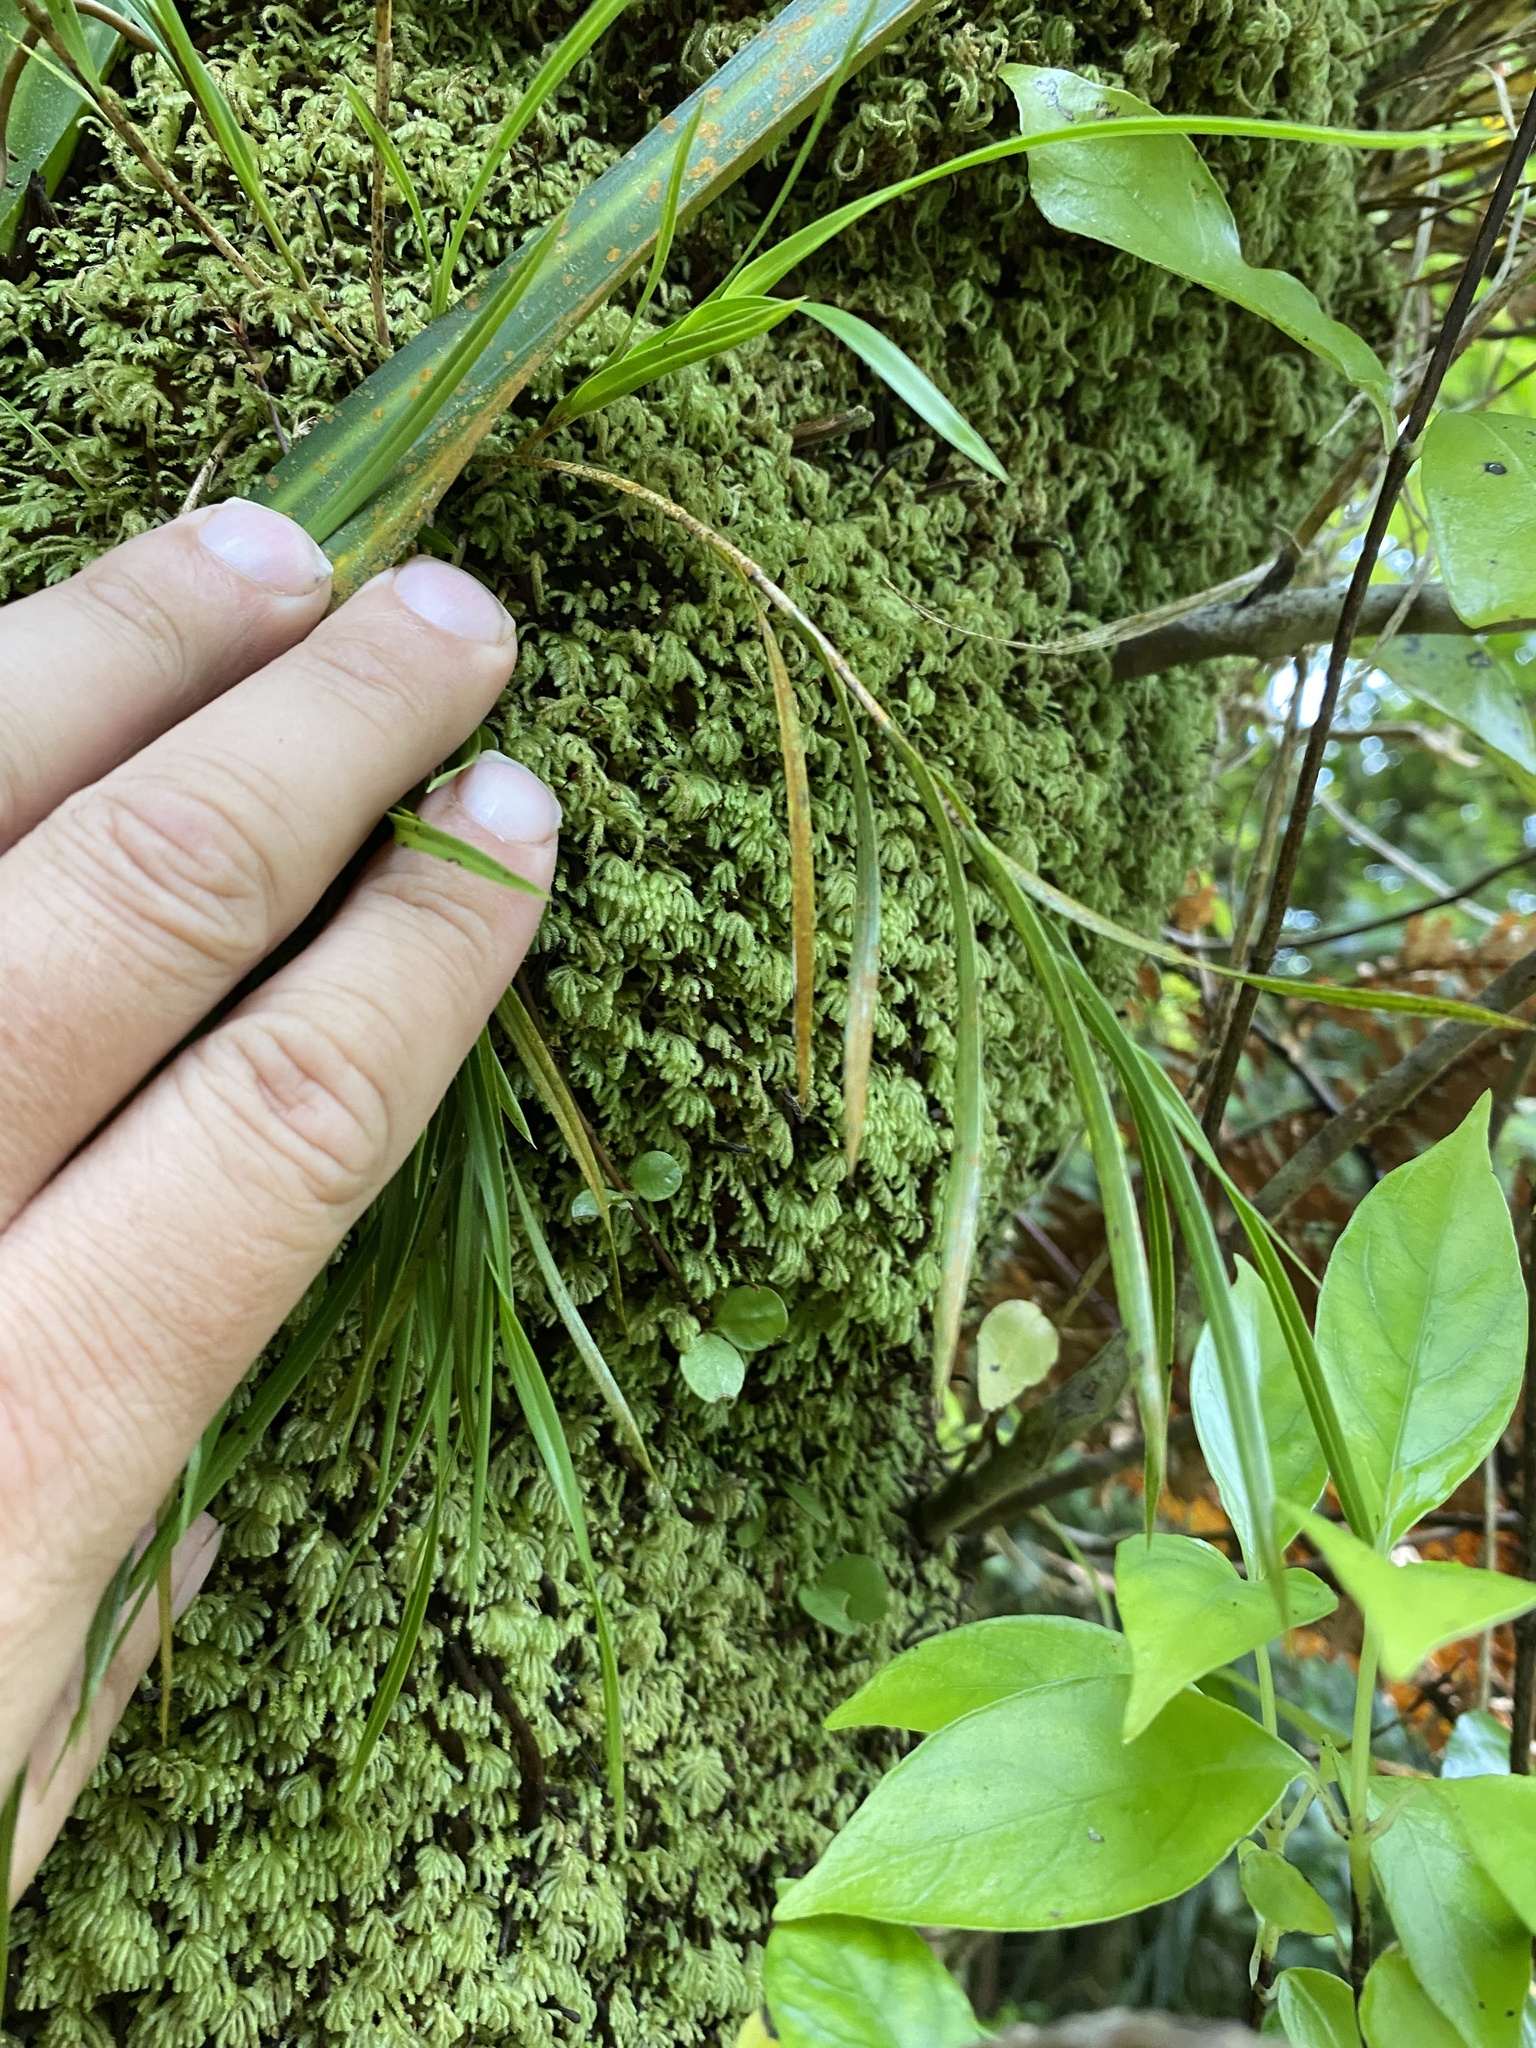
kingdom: Plantae
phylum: Tracheophyta
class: Liliopsida
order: Asparagales
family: Orchidaceae
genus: Earina
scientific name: Earina mucronata
